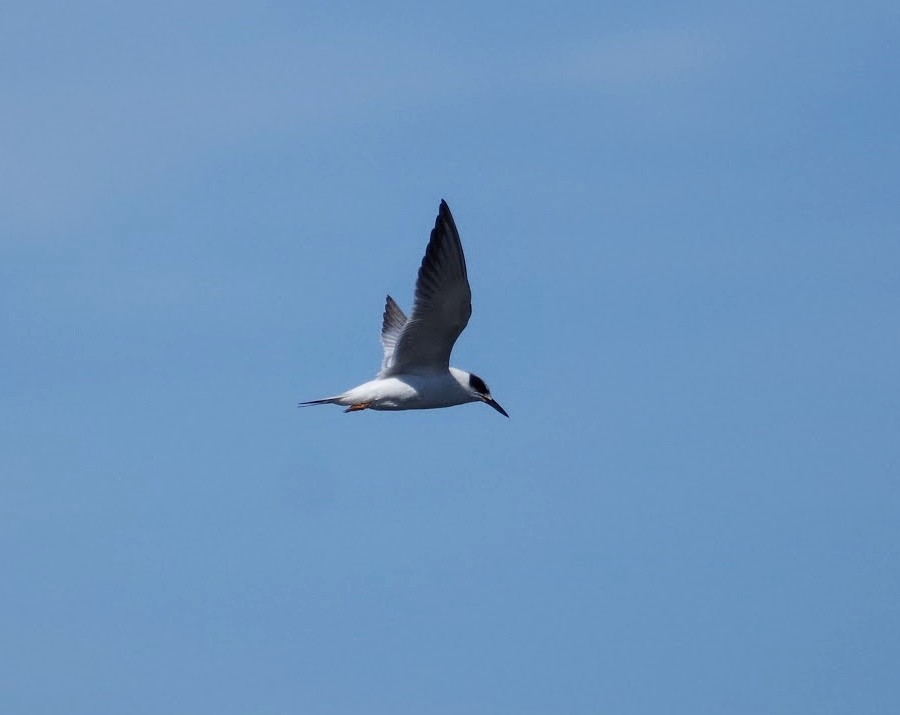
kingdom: Animalia
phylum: Chordata
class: Aves
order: Charadriiformes
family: Laridae
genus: Sterna
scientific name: Sterna forsteri
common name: Forster's tern
